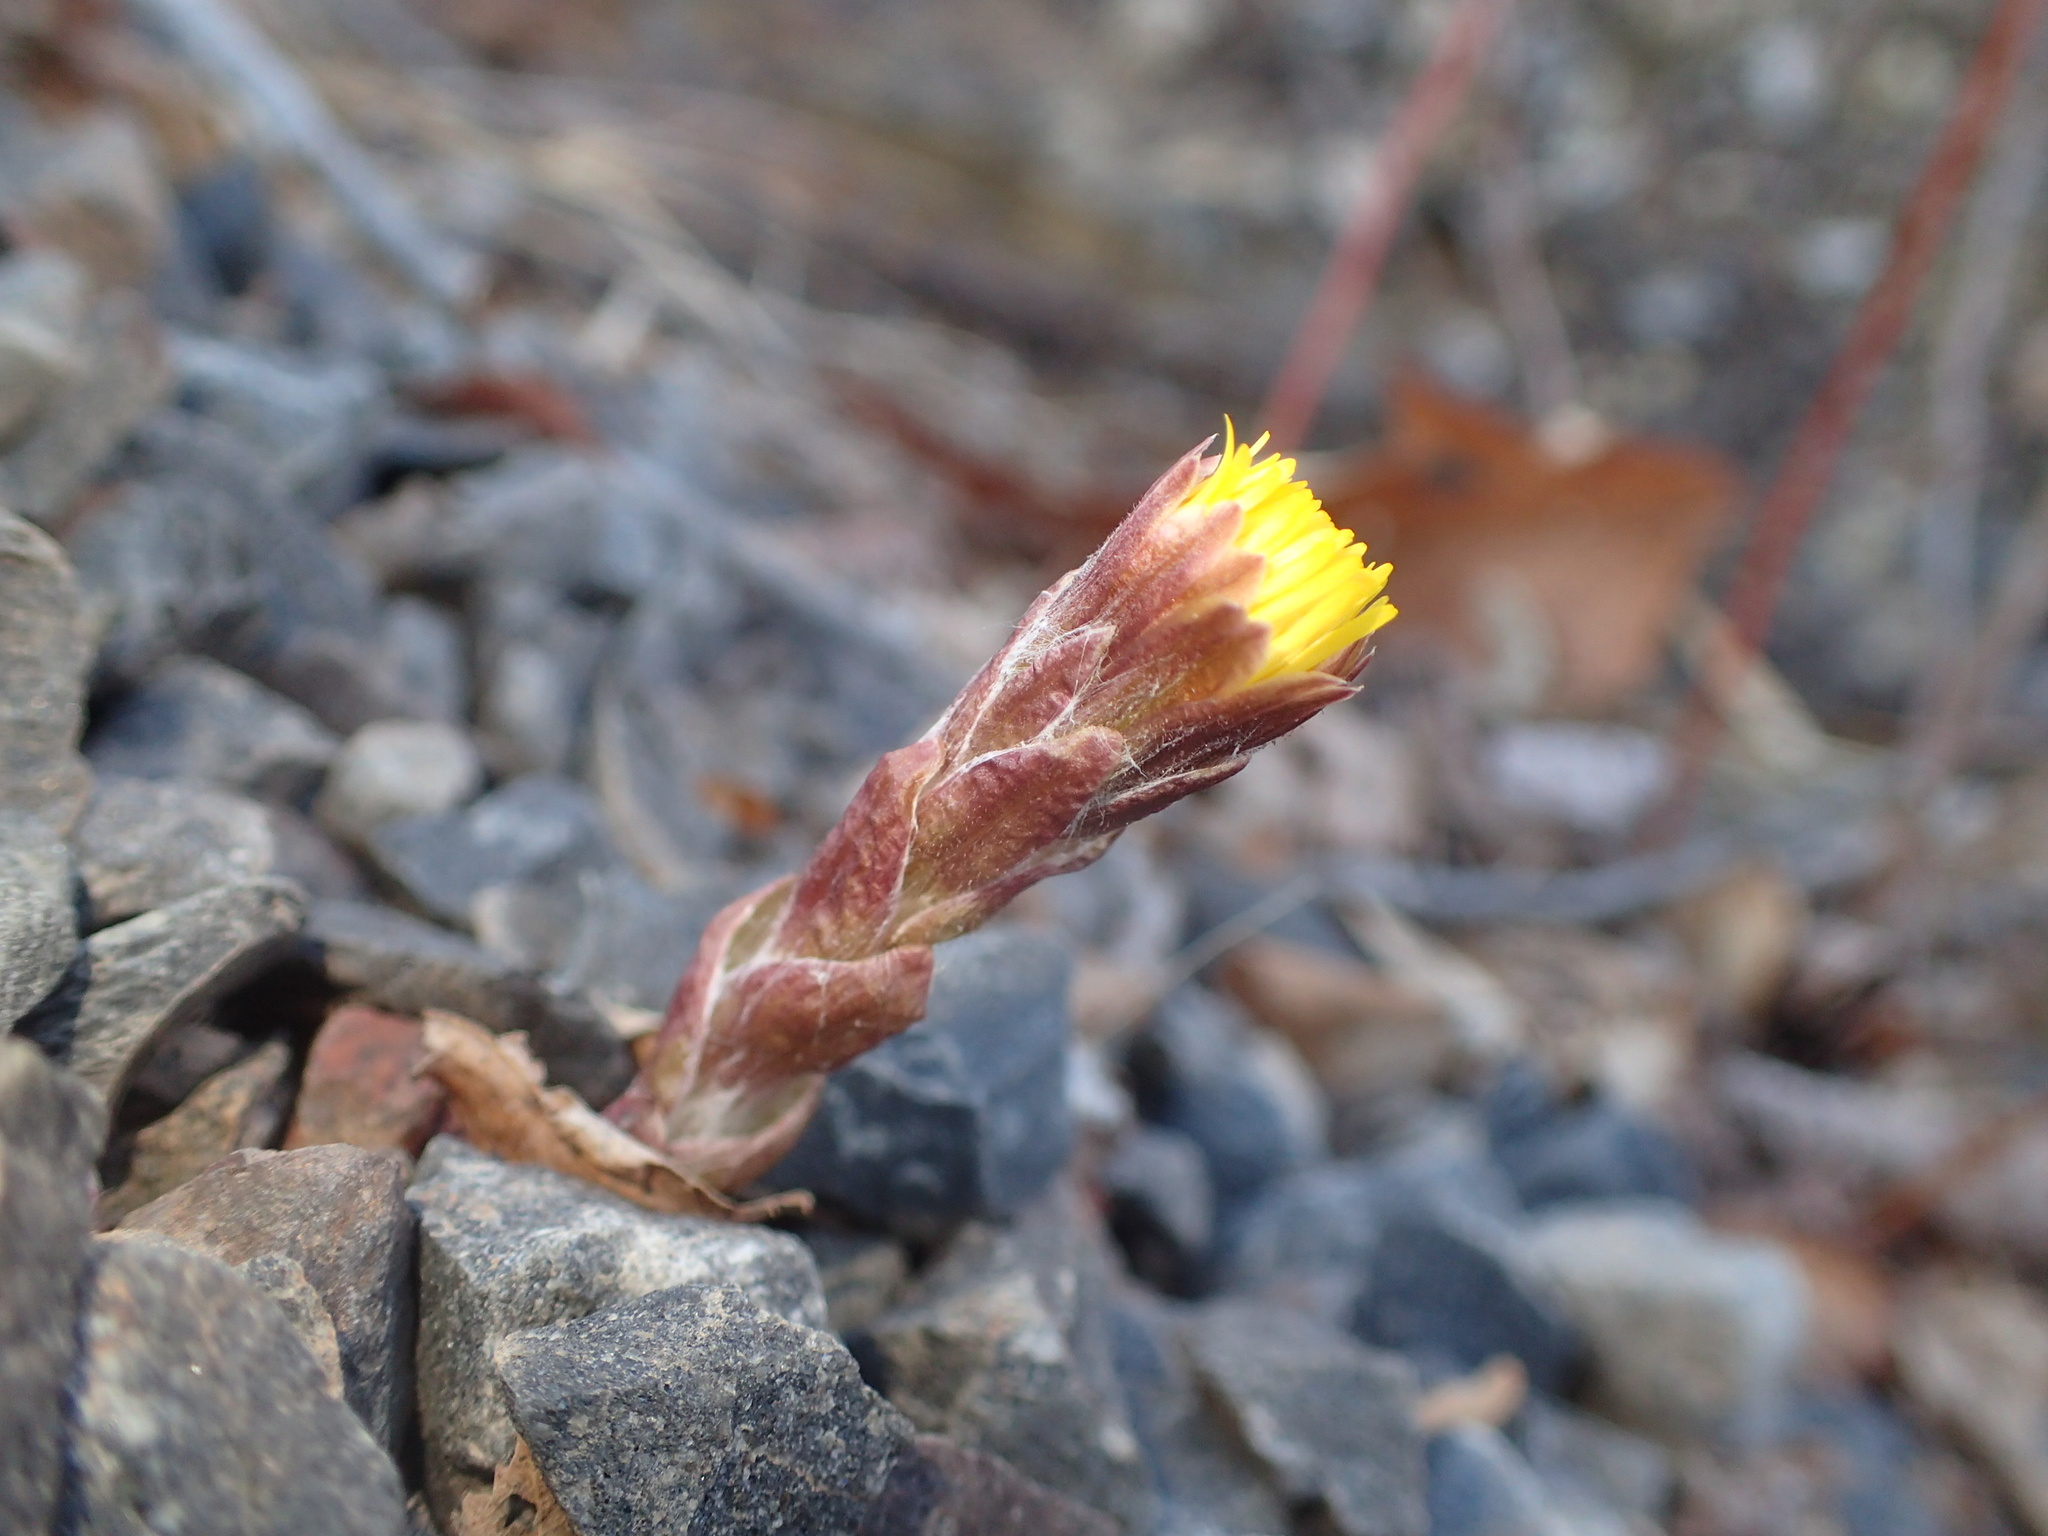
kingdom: Plantae
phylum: Tracheophyta
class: Magnoliopsida
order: Asterales
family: Asteraceae
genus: Tussilago
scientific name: Tussilago farfara
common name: Coltsfoot
